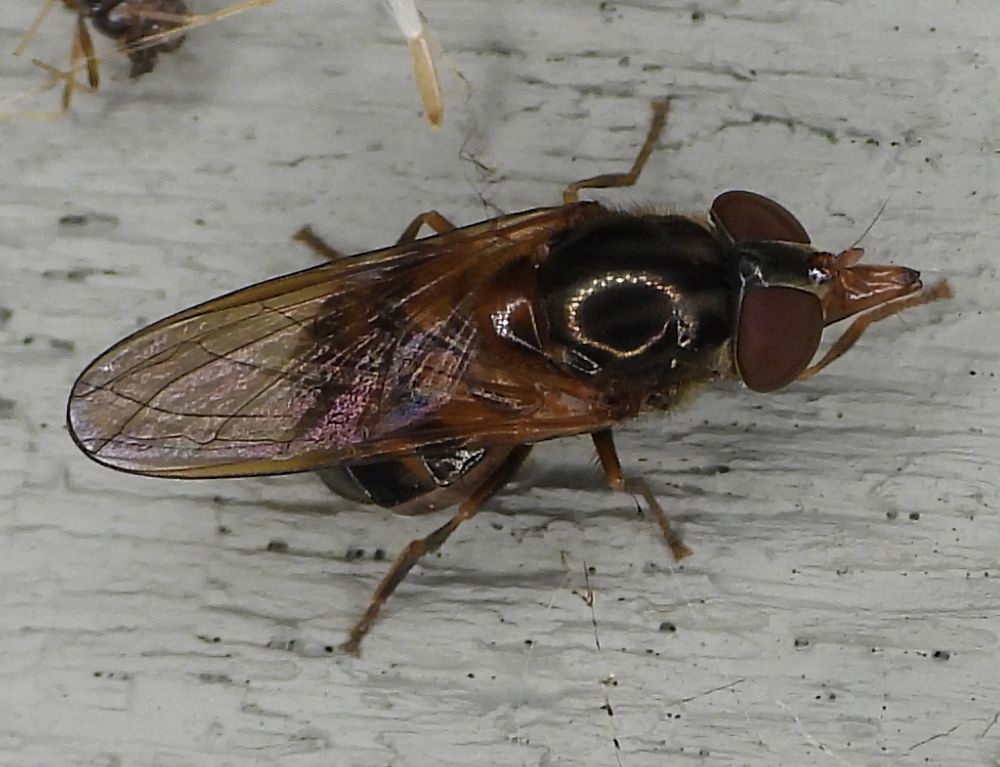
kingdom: Animalia
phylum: Arthropoda
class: Insecta
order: Diptera
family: Syrphidae
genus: Rhingia
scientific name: Rhingia nasica
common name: American snout fly
